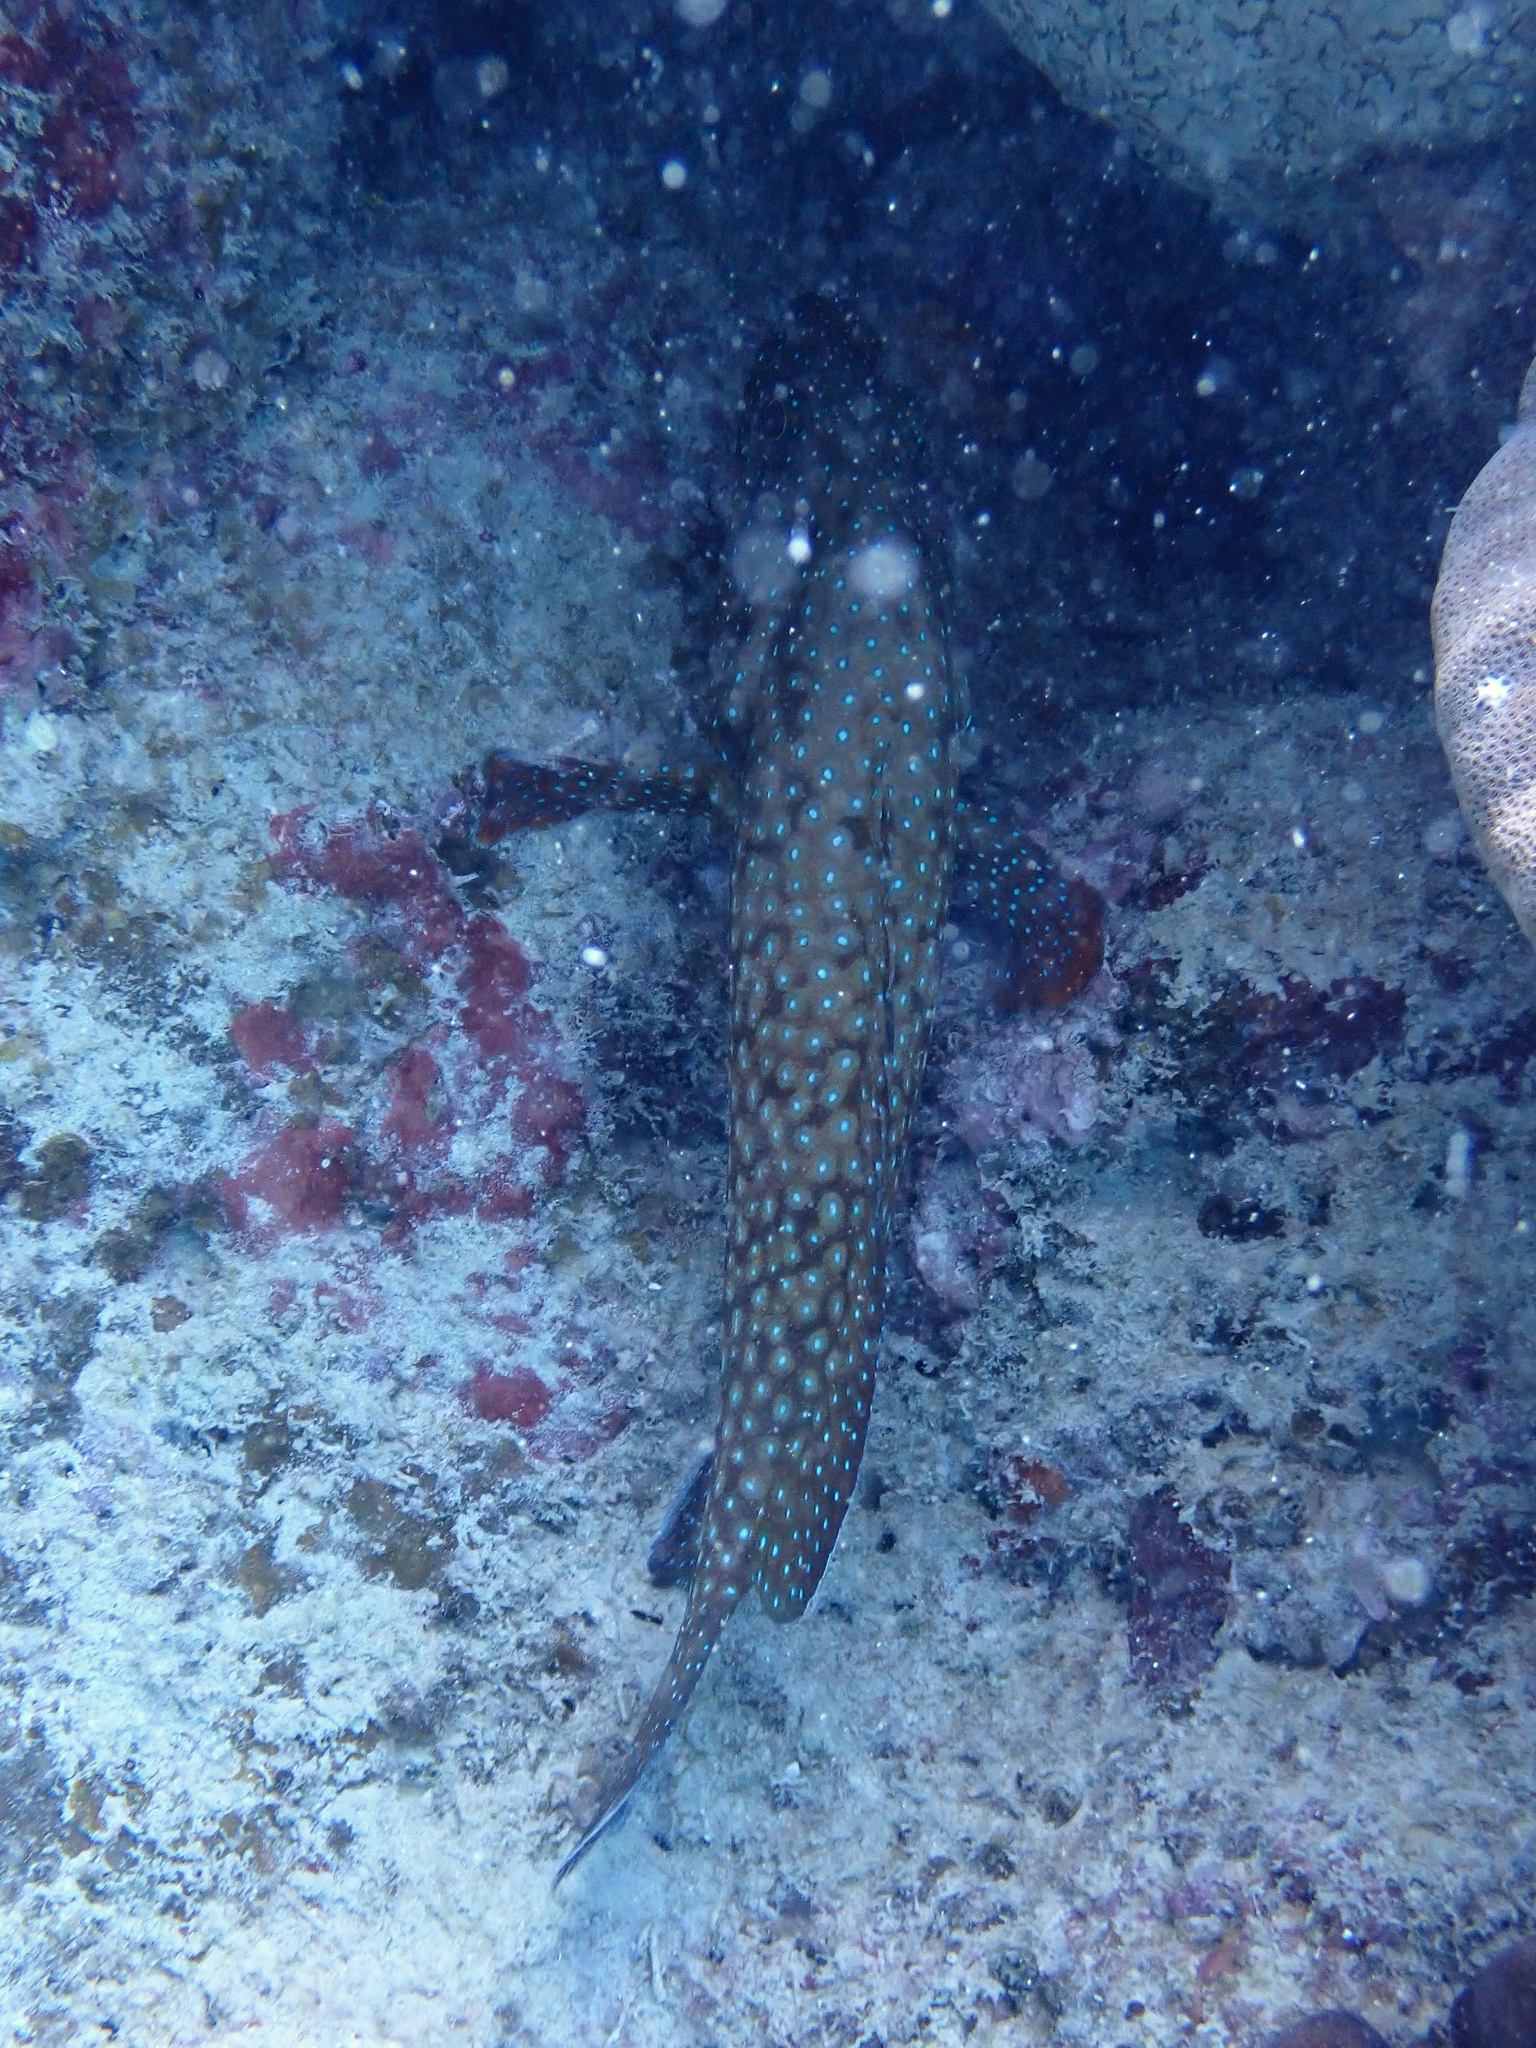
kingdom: Animalia
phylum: Chordata
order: Perciformes
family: Serranidae
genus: Cephalopholis
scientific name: Cephalopholis cyanostigma
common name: Bluespotted hind
